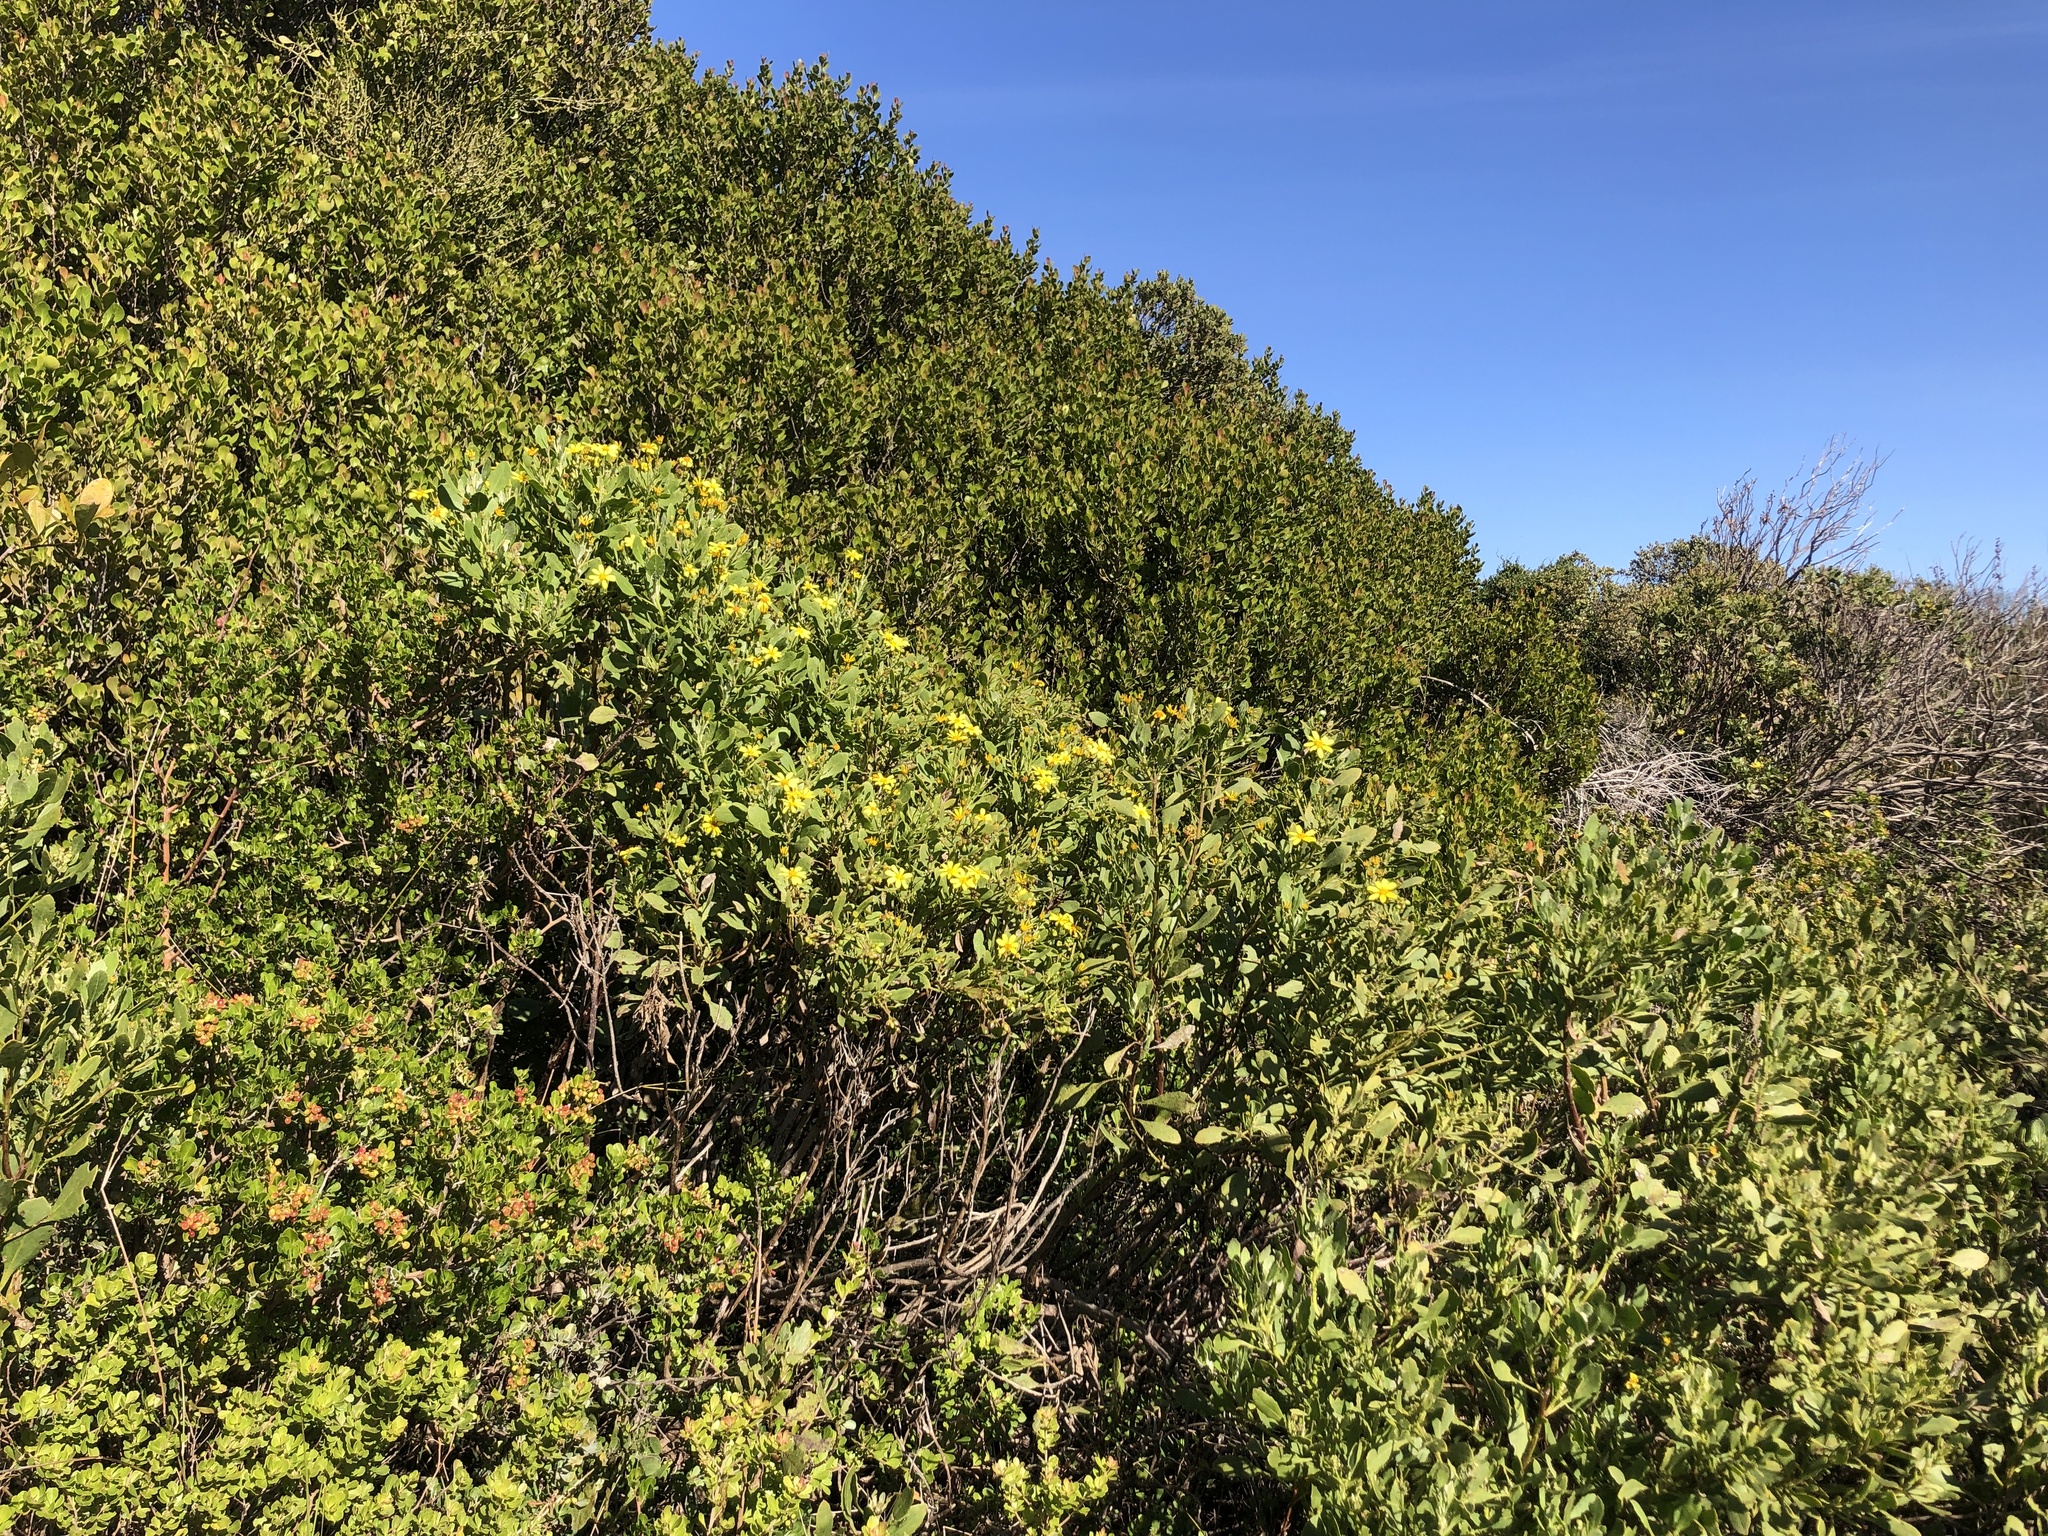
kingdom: Plantae
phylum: Tracheophyta
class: Magnoliopsida
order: Asterales
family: Asteraceae
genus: Osteospermum
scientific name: Osteospermum moniliferum
